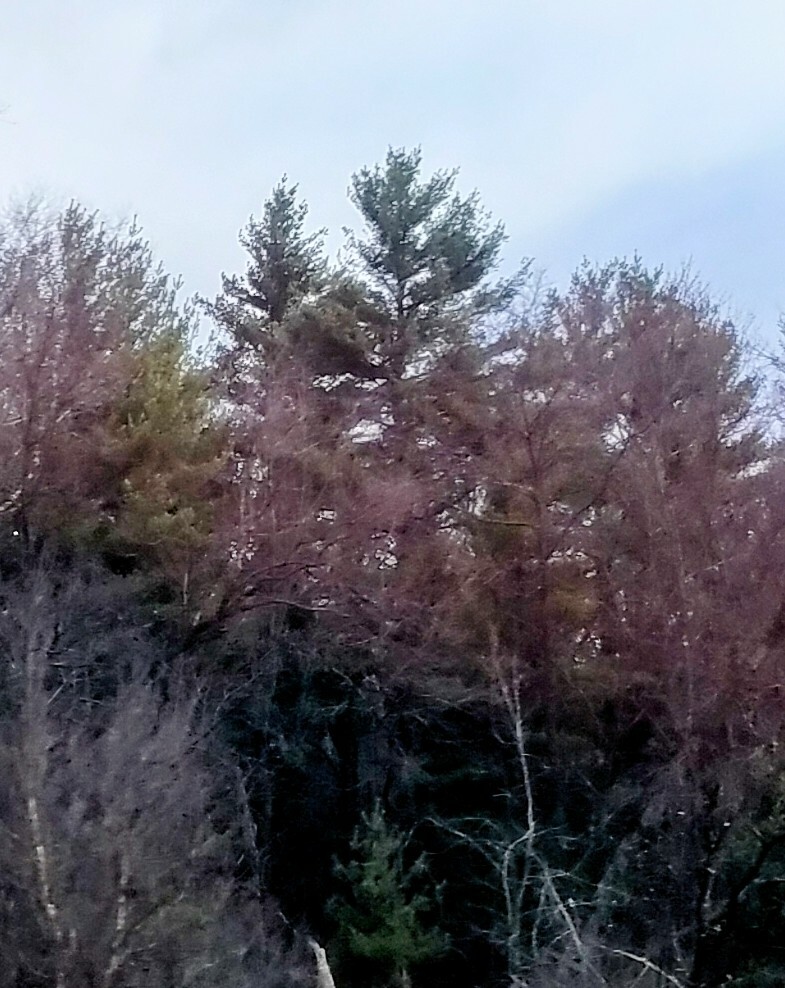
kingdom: Plantae
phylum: Tracheophyta
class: Pinopsida
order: Pinales
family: Pinaceae
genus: Pinus
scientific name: Pinus strobus
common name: Weymouth pine
